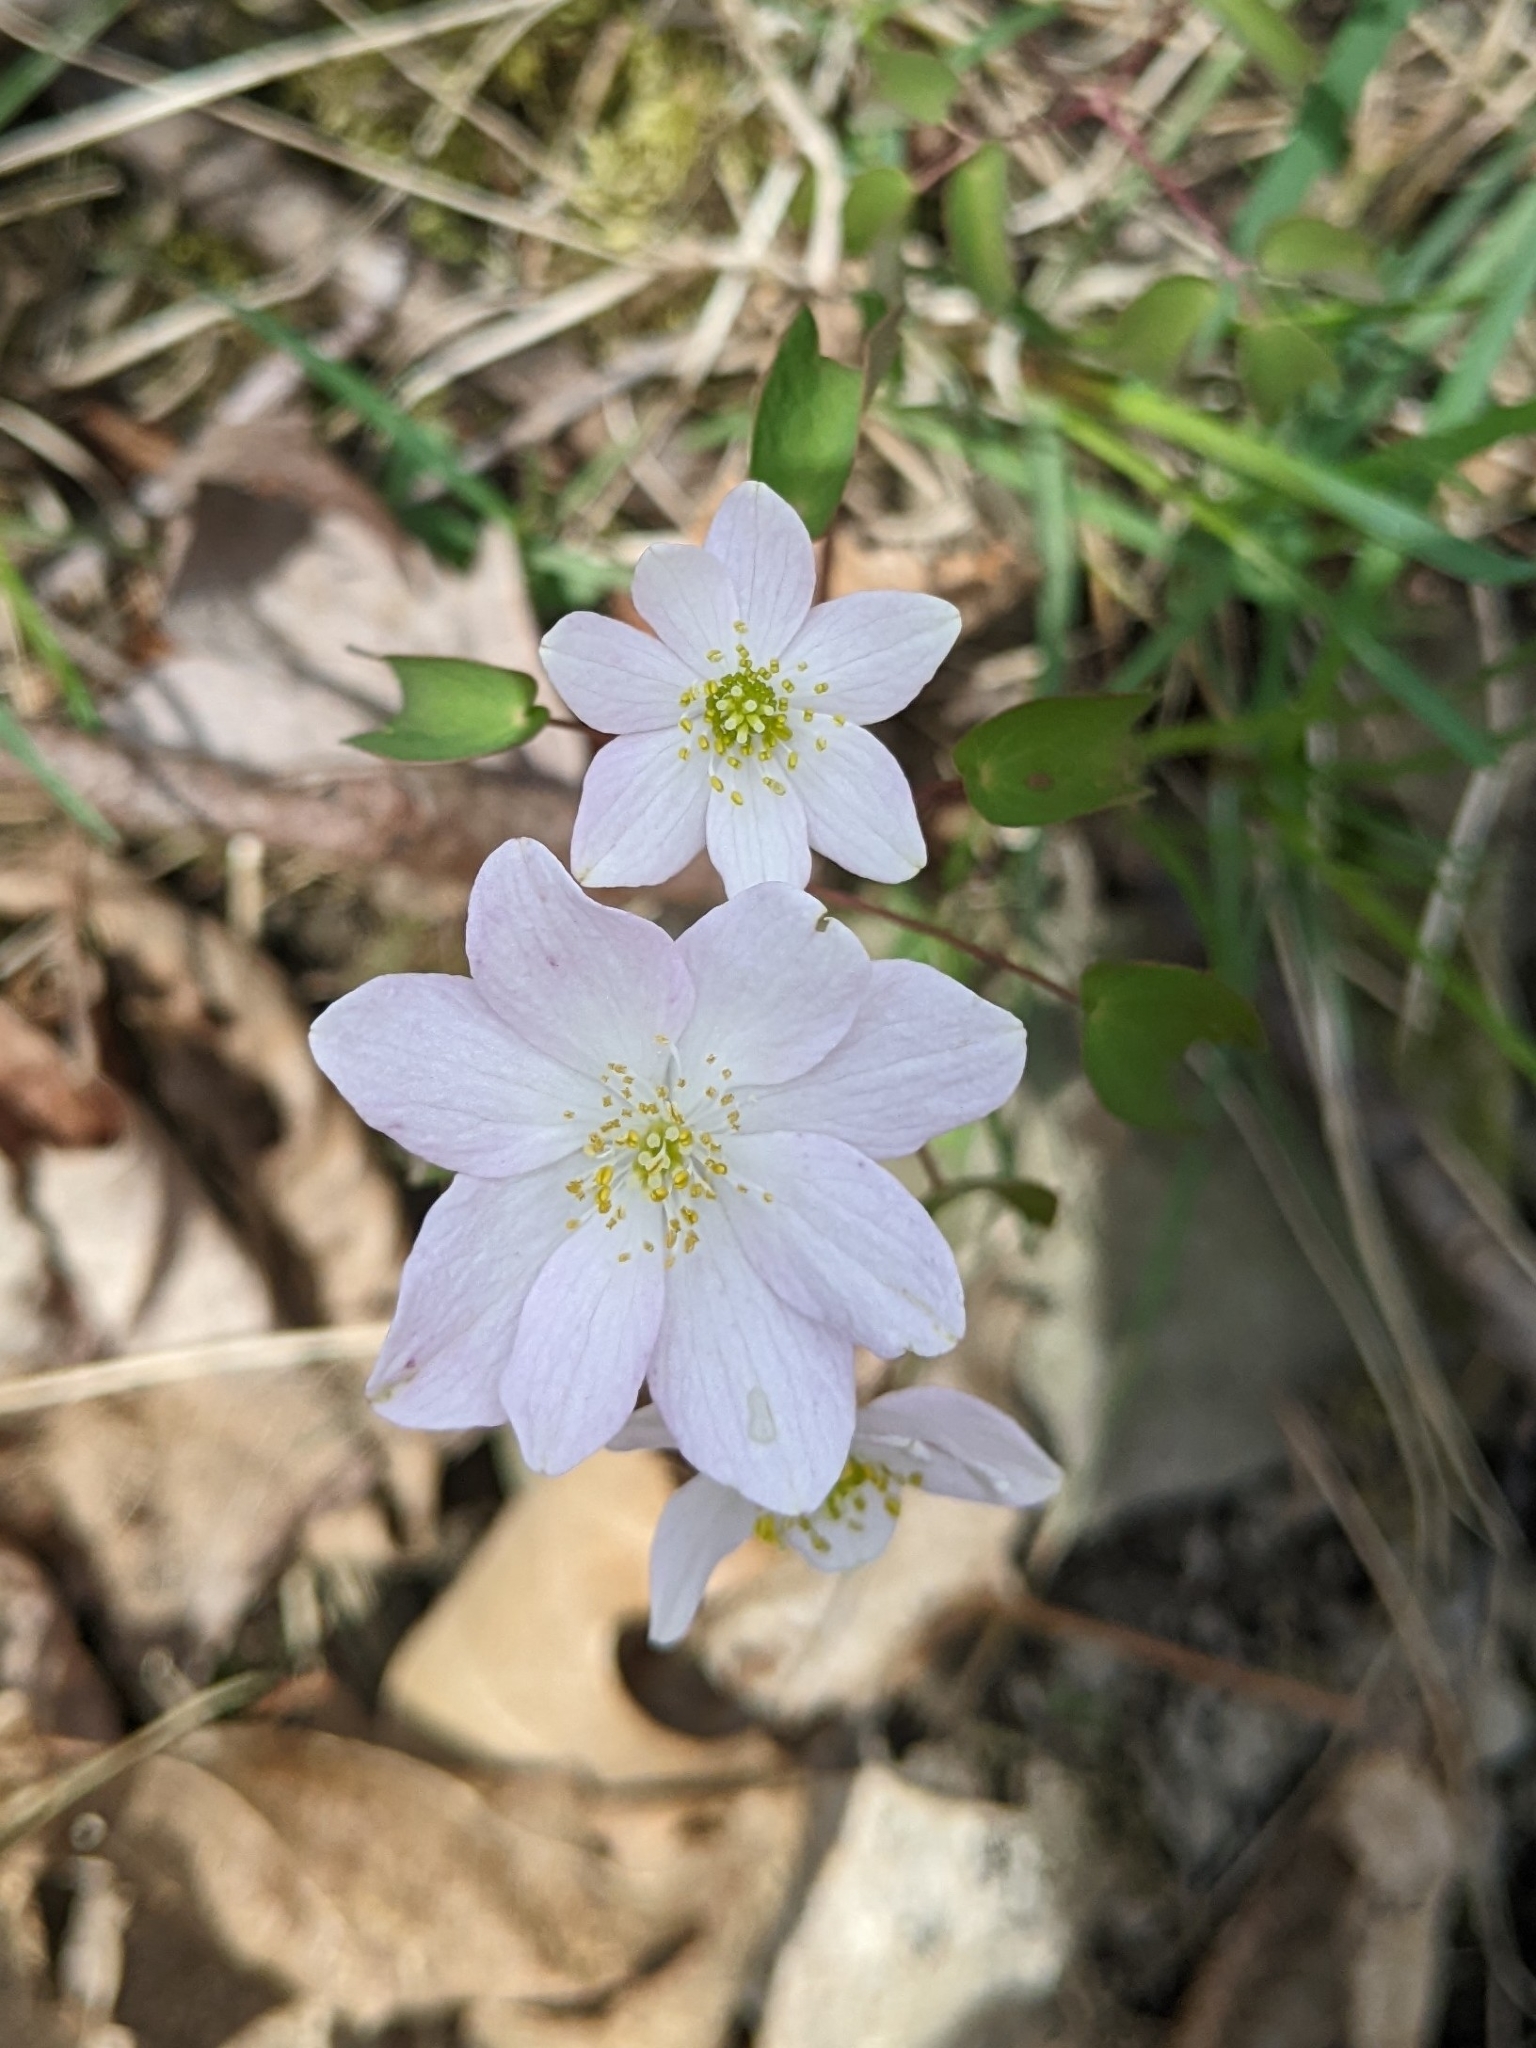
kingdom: Plantae
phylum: Tracheophyta
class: Magnoliopsida
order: Ranunculales
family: Ranunculaceae
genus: Thalictrum
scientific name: Thalictrum thalictroides
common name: Rue-anemone
